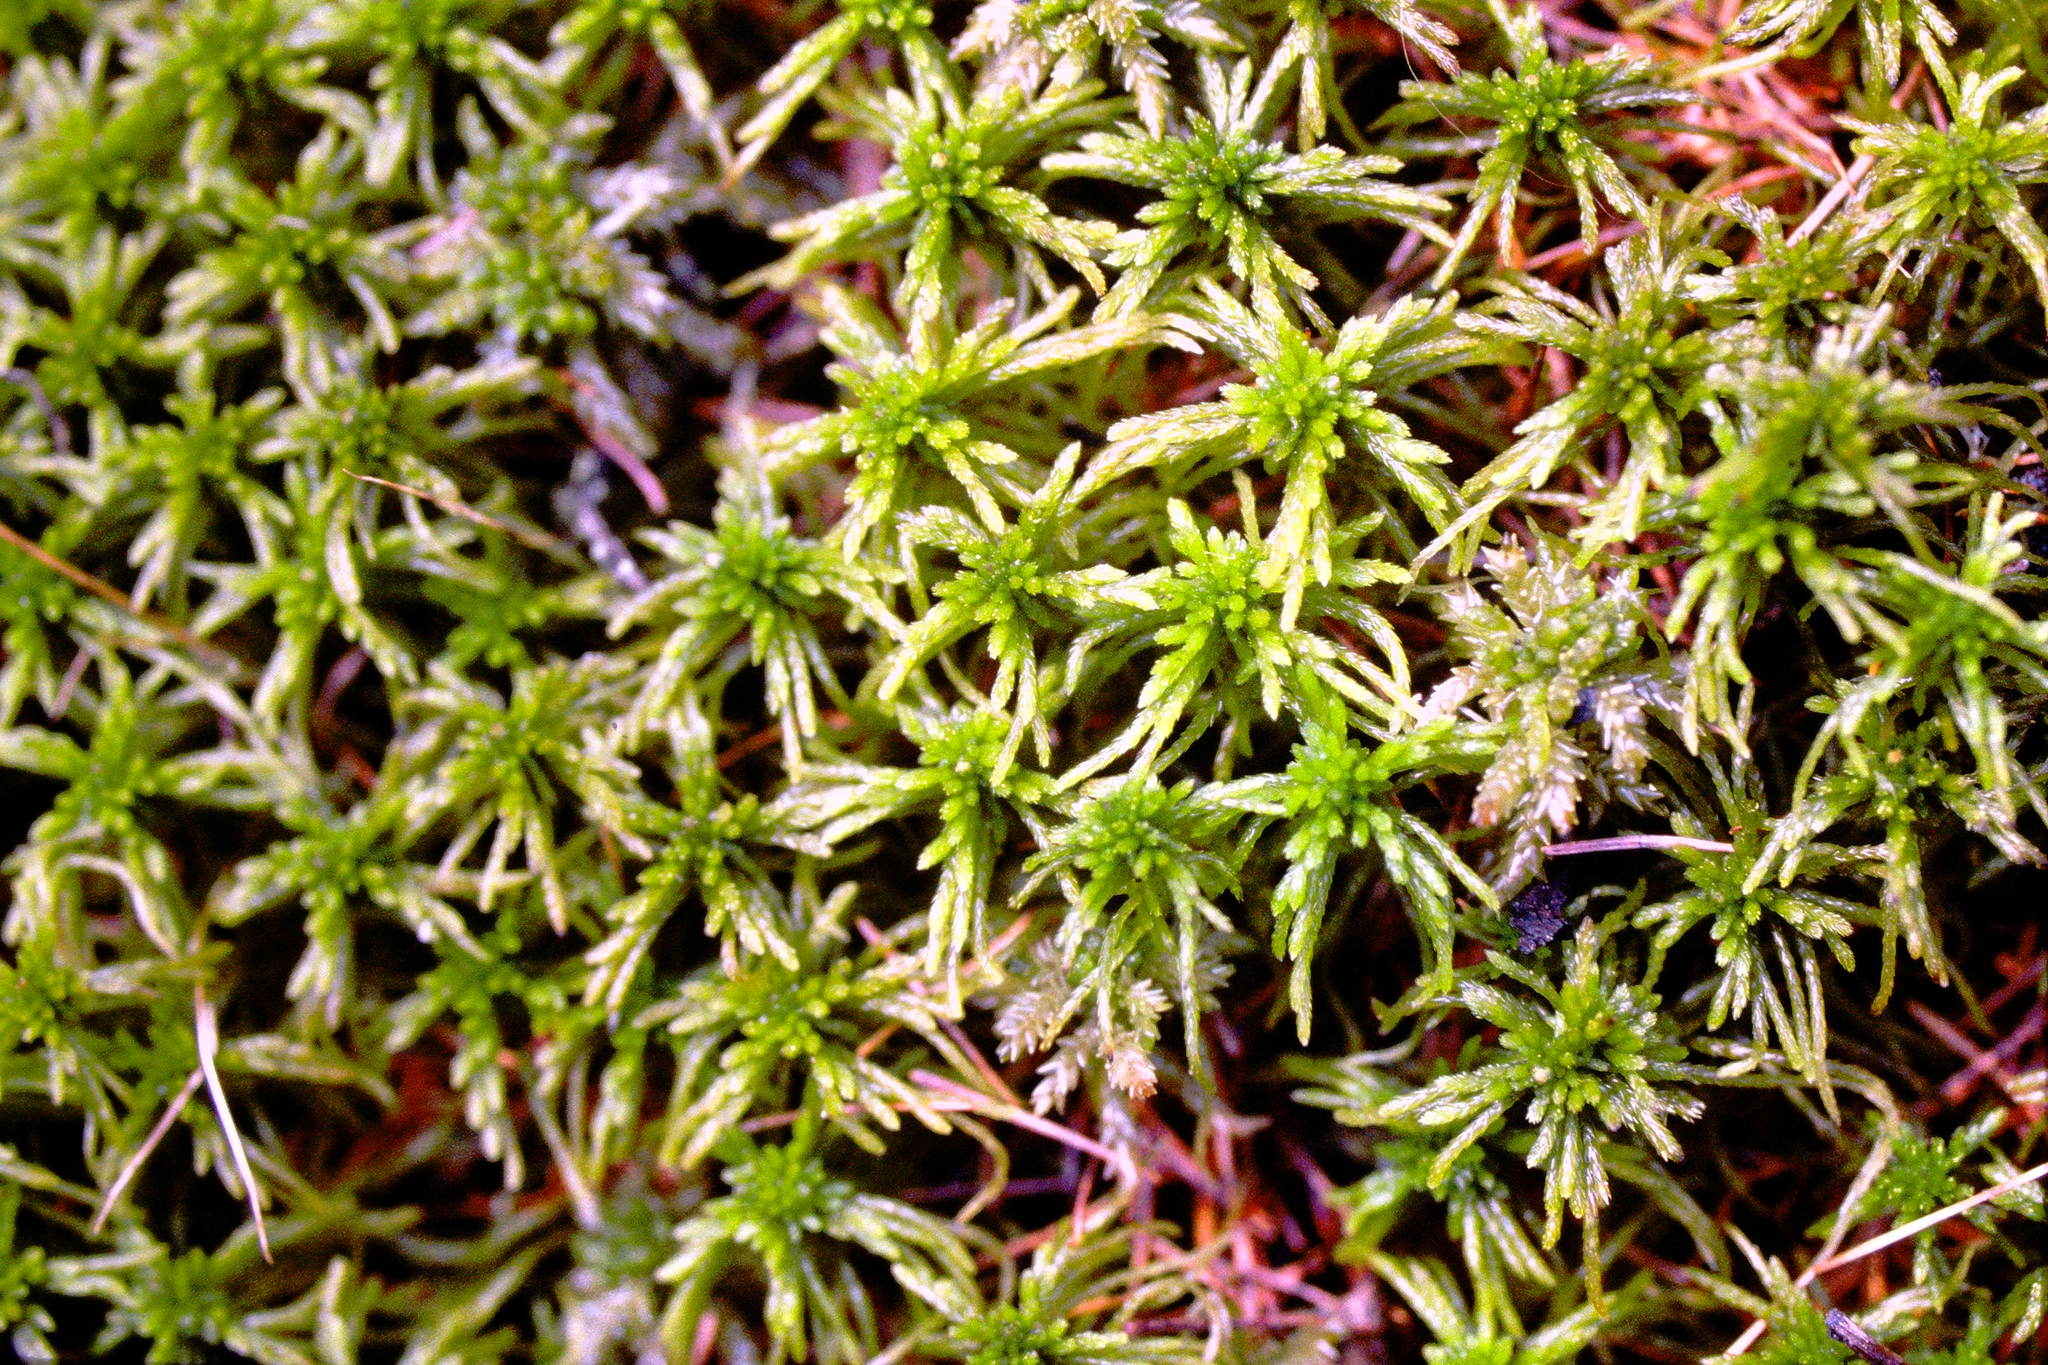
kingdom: Plantae
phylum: Bryophyta
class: Sphagnopsida
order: Sphagnales
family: Sphagnaceae
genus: Sphagnum
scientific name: Sphagnum girgensohnii
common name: Girgensohn's peat moss
